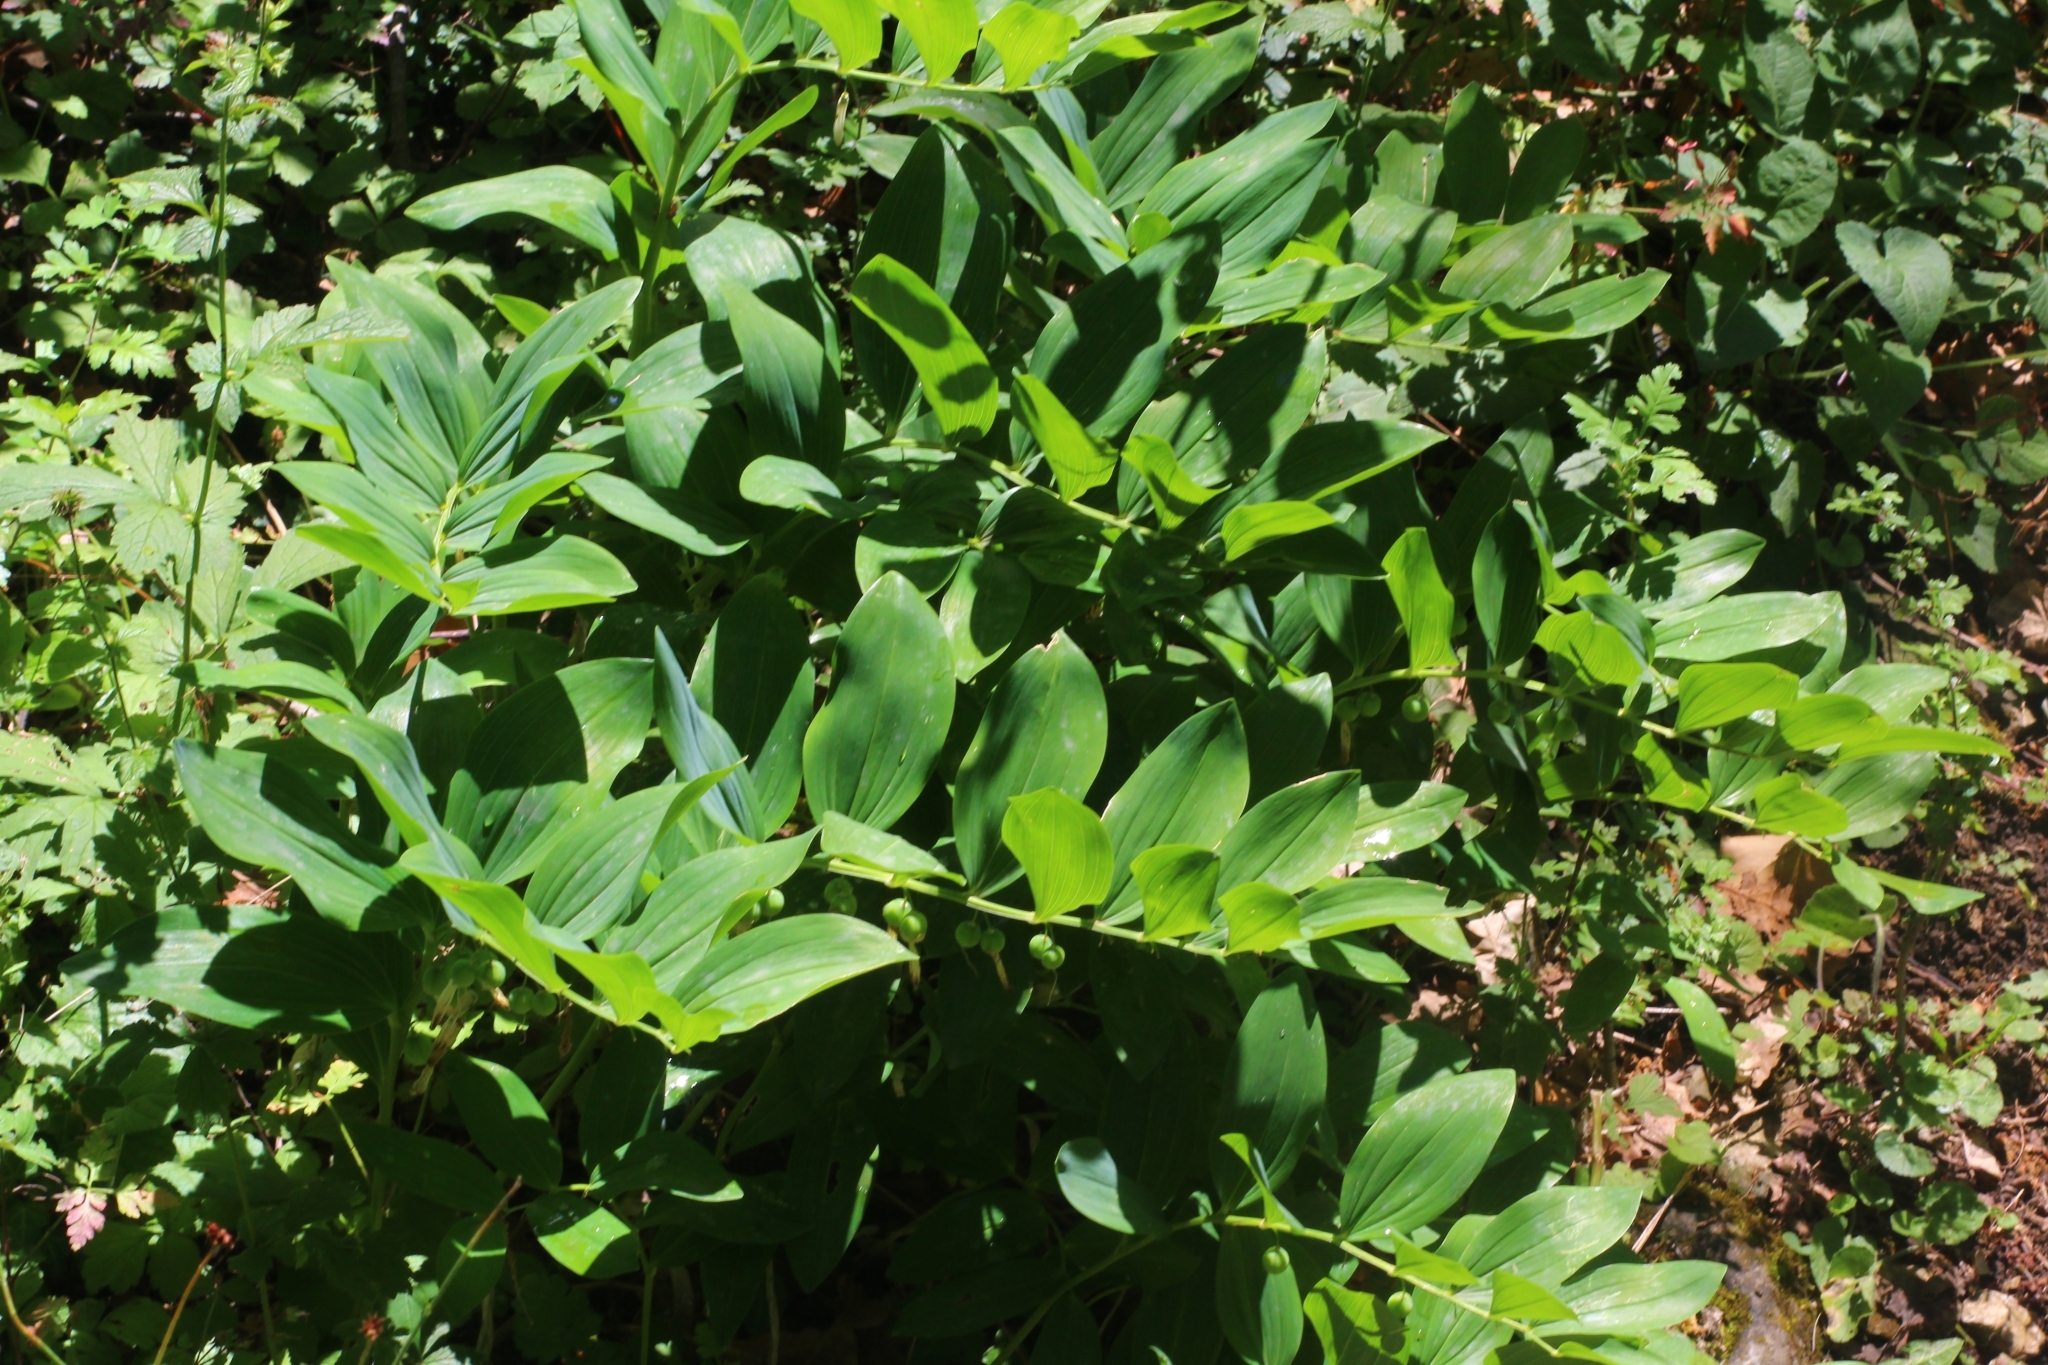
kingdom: Plantae
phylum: Tracheophyta
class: Liliopsida
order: Asparagales
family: Asparagaceae
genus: Polygonatum
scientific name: Polygonatum odoratum
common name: Angular solomon's-seal
